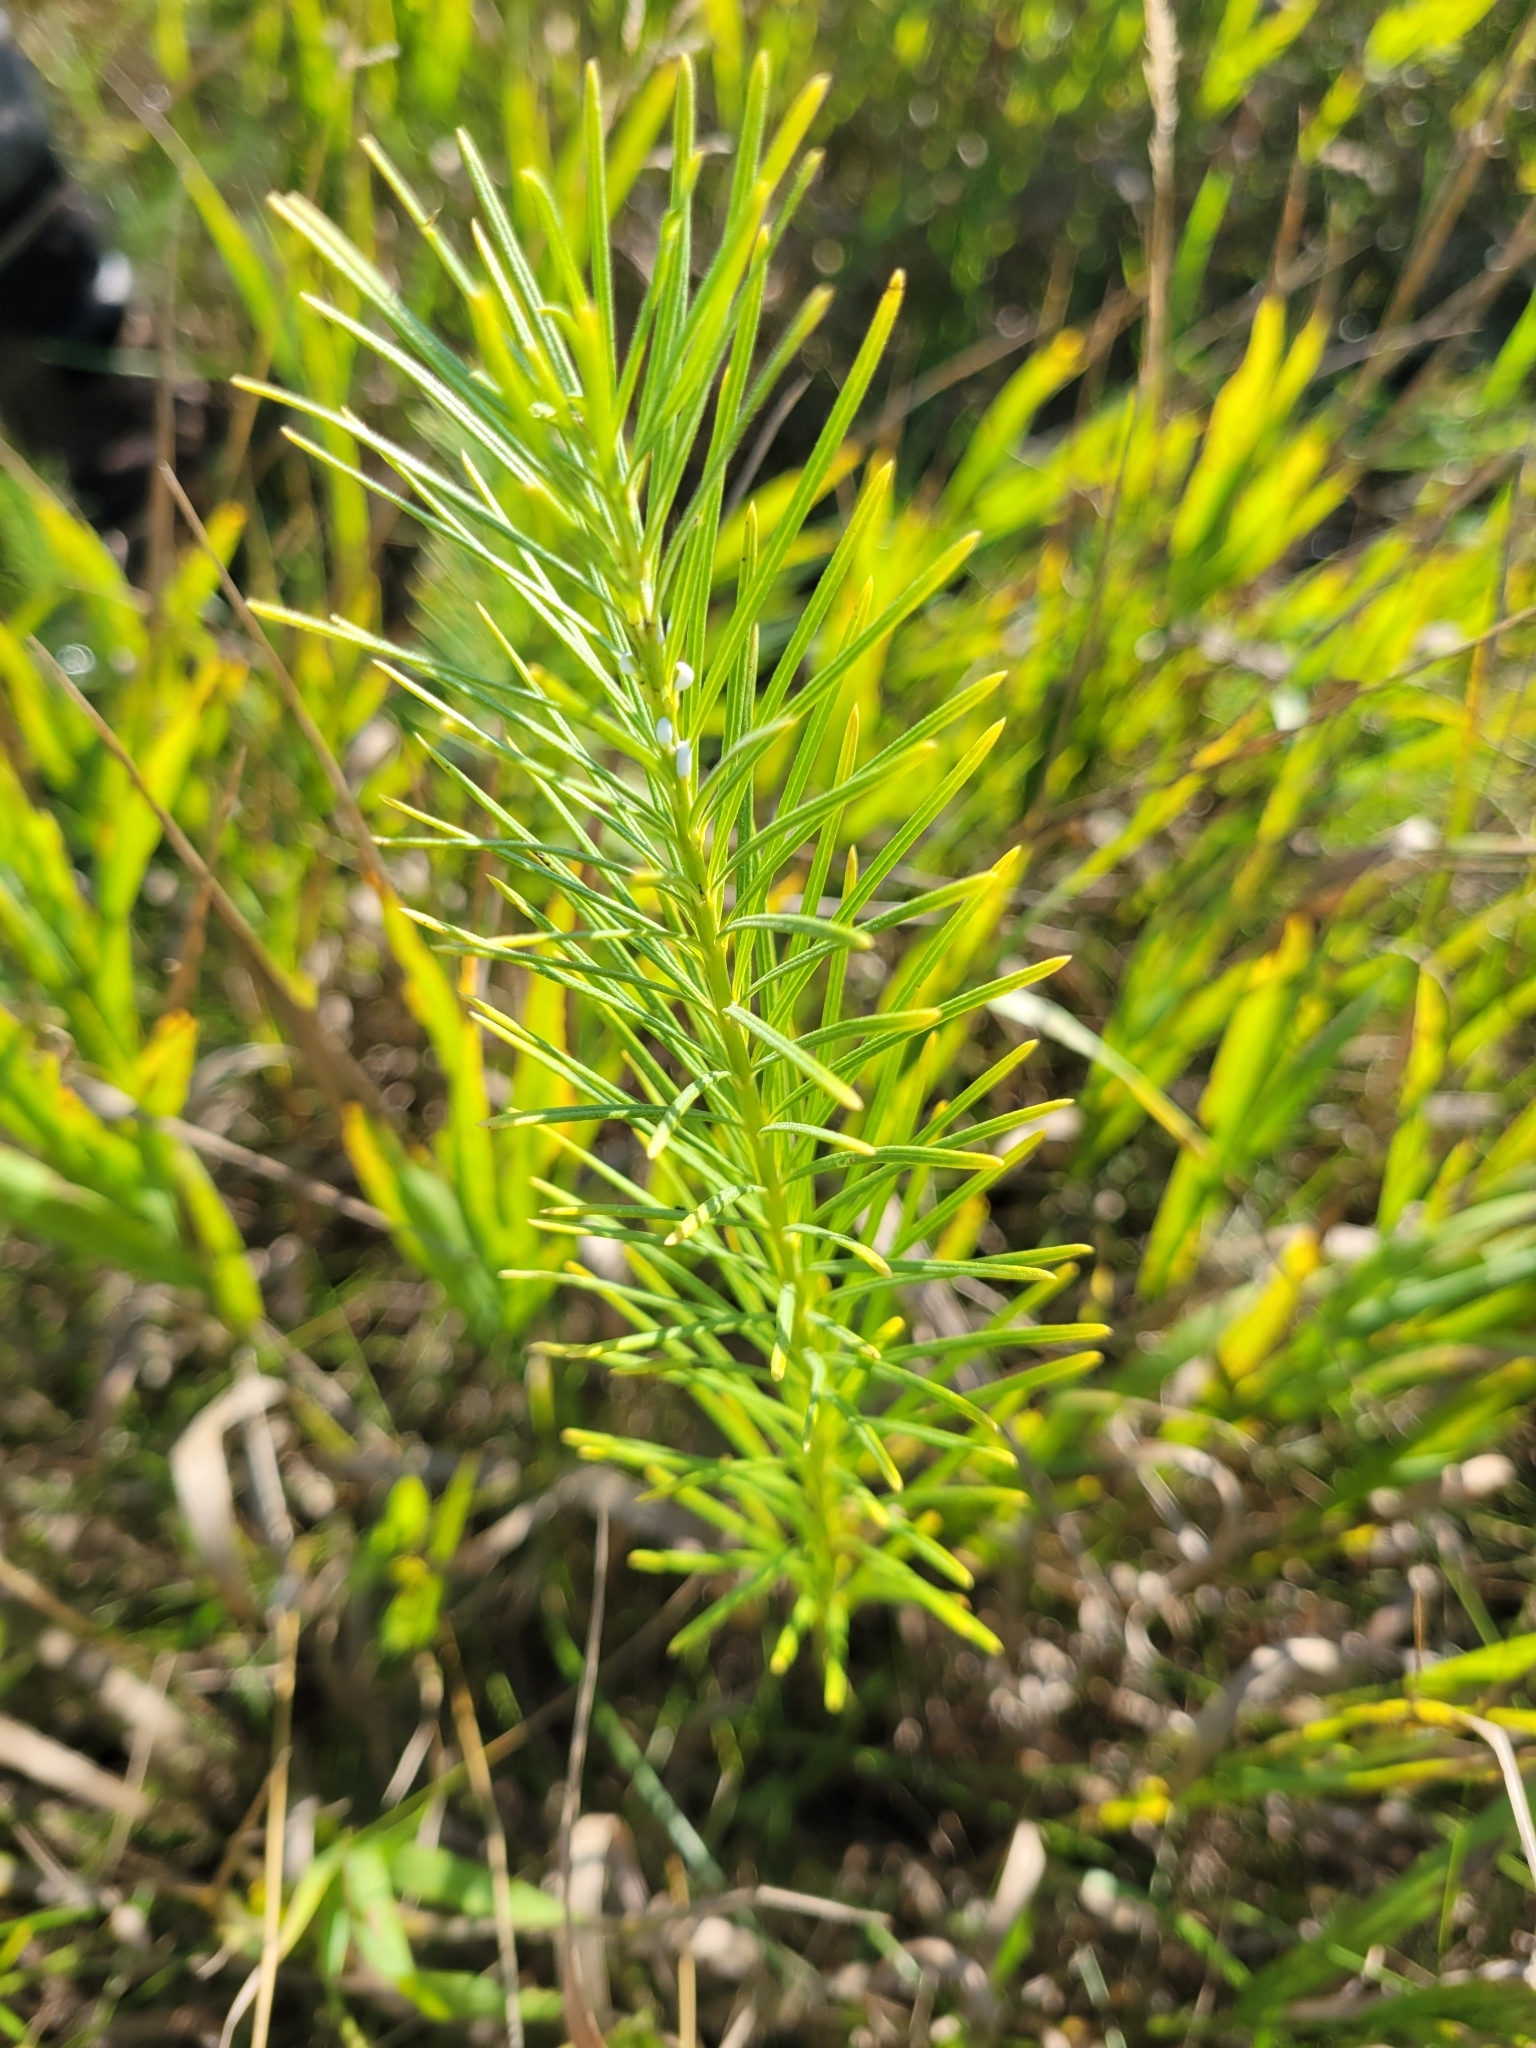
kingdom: Plantae
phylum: Tracheophyta
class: Magnoliopsida
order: Gentianales
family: Apocynaceae
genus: Asclepias
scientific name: Asclepias verticillata
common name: Eastern whorled milkweed
